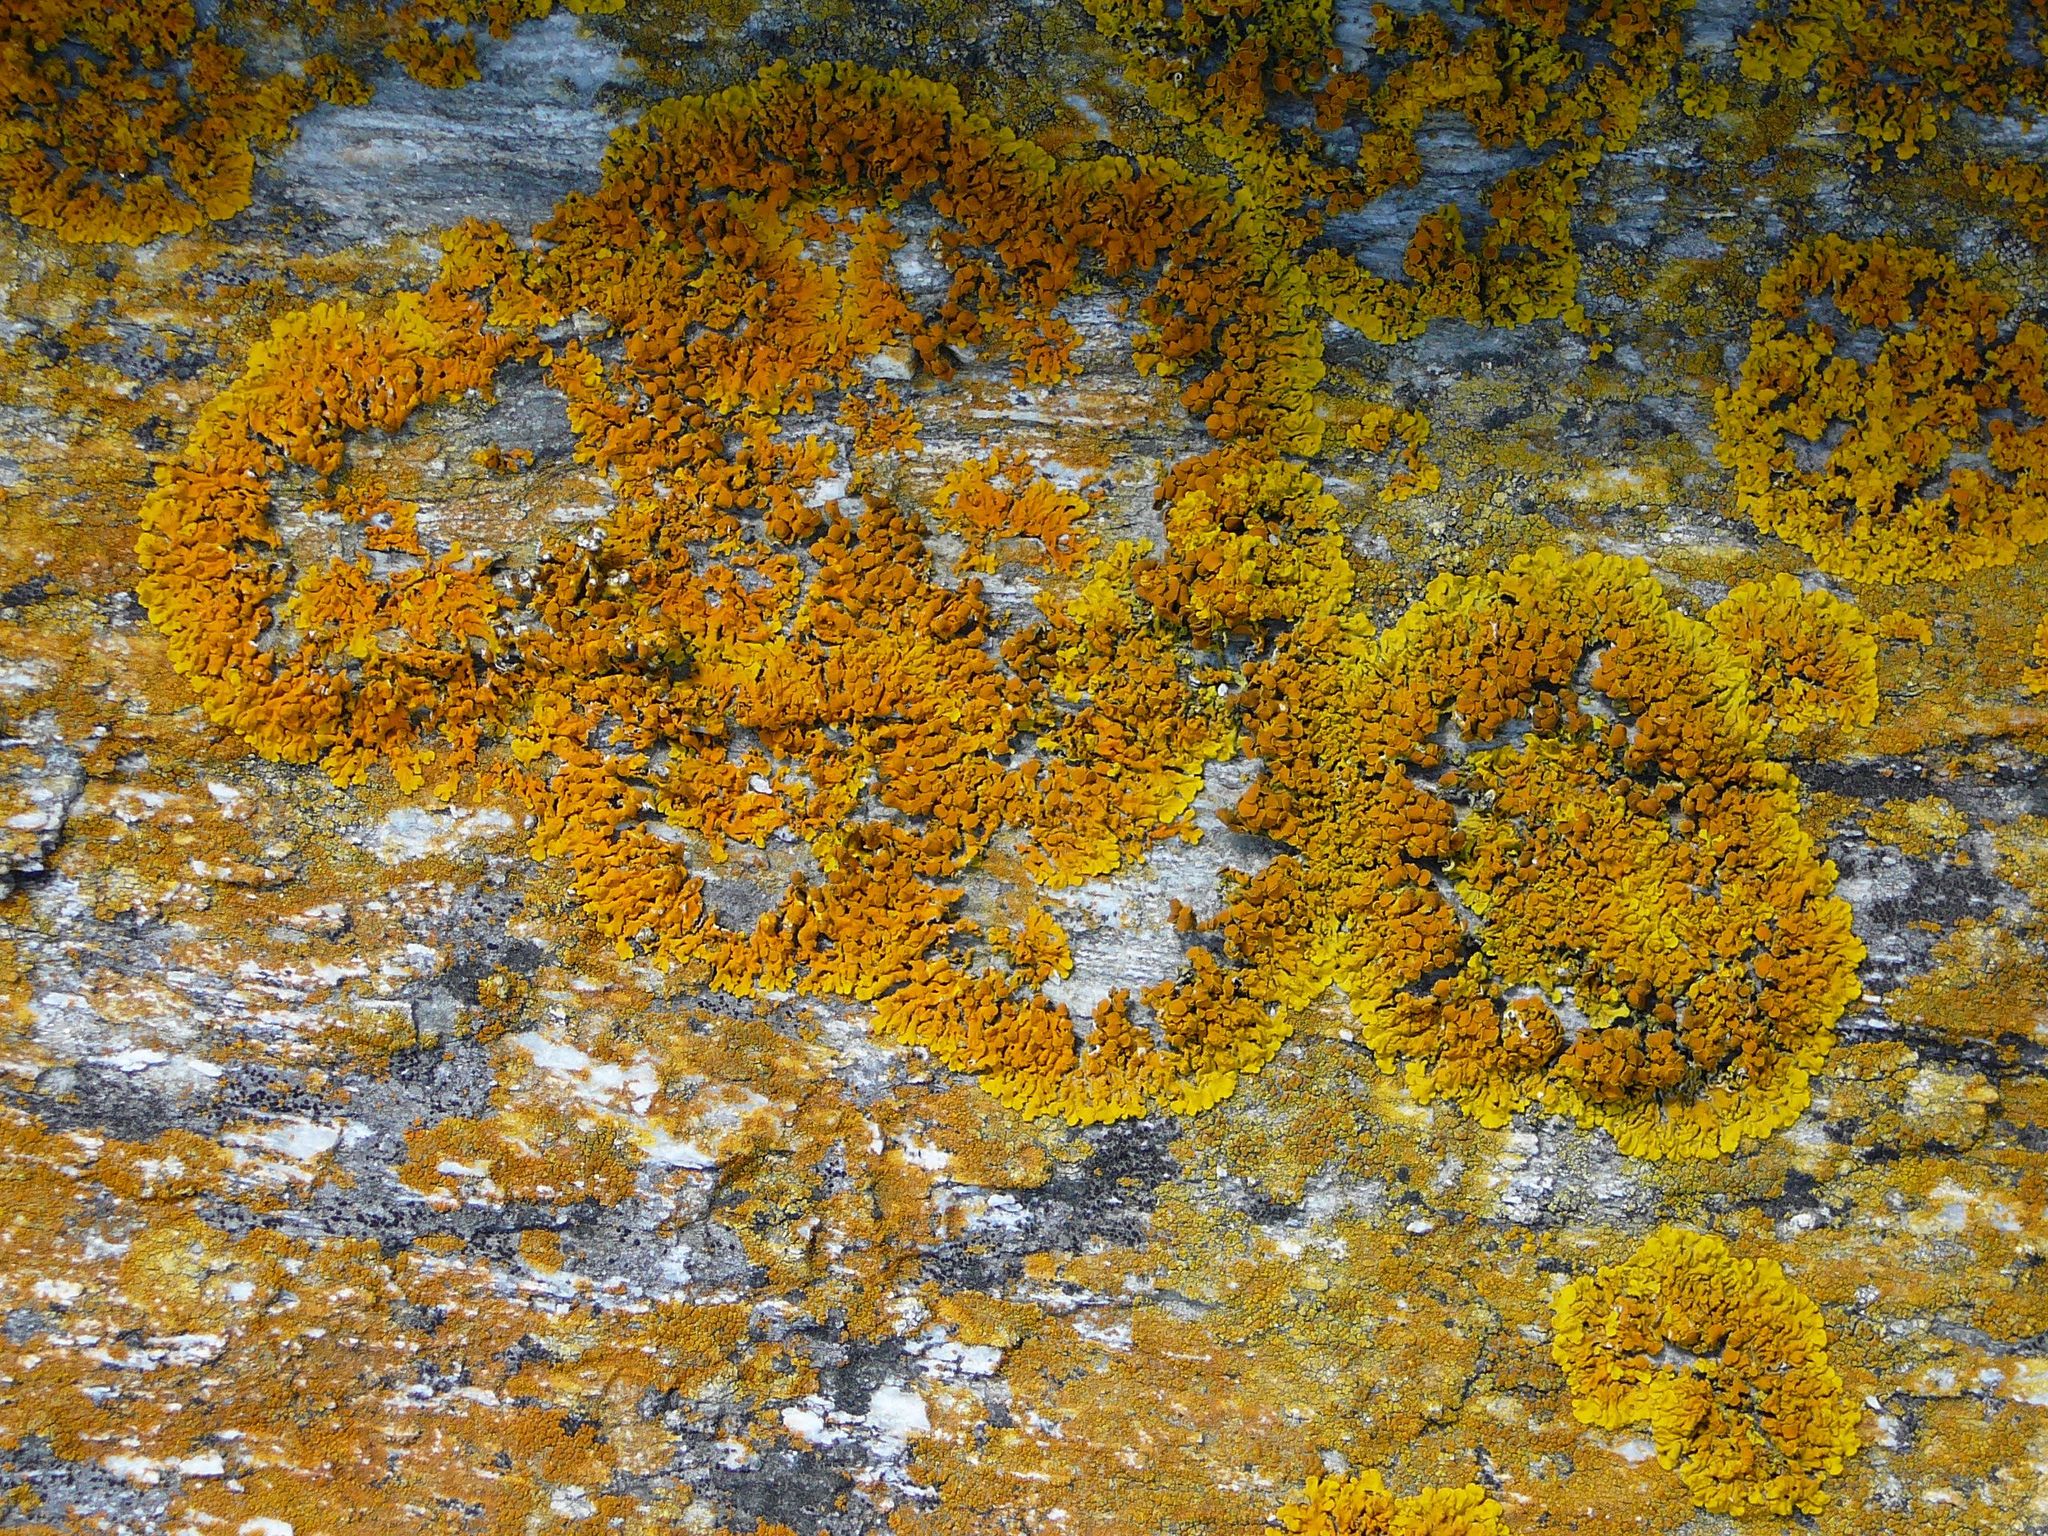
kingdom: Fungi
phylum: Ascomycota
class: Lecanoromycetes
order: Teloschistales
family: Teloschistaceae
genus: Xanthoria
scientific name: Xanthoria parietina
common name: Common orange lichen
